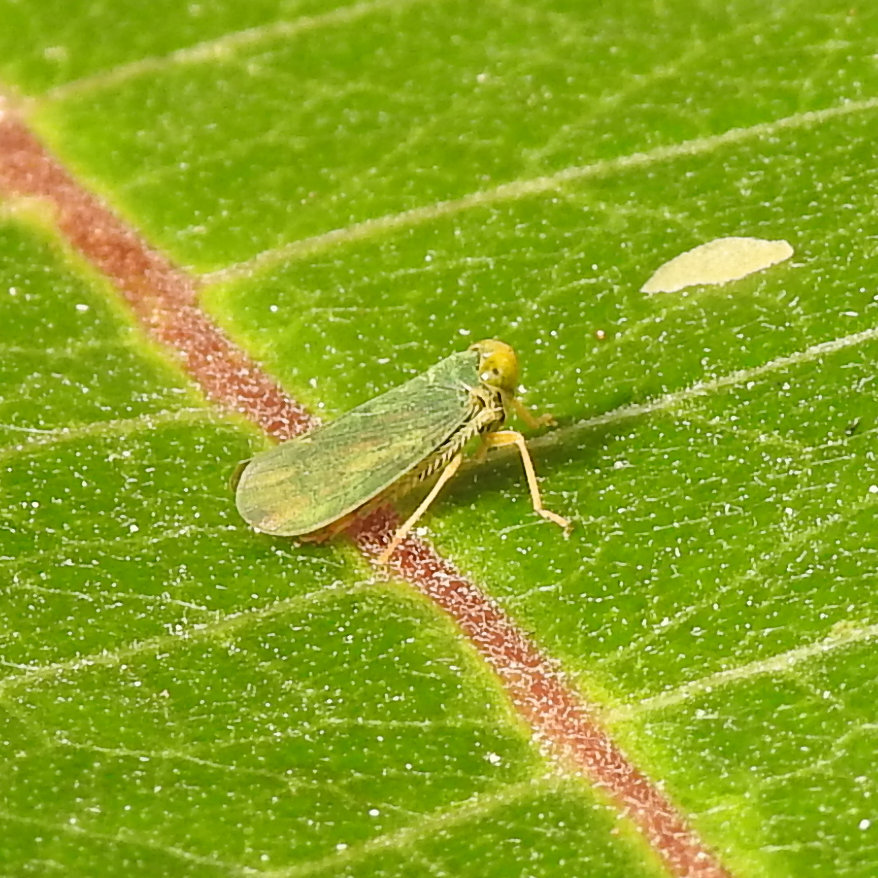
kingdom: Animalia
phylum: Arthropoda
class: Insecta
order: Hemiptera
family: Cicadellidae
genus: Jikradia
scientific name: Jikradia olitoria
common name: Coppery leafhopper
